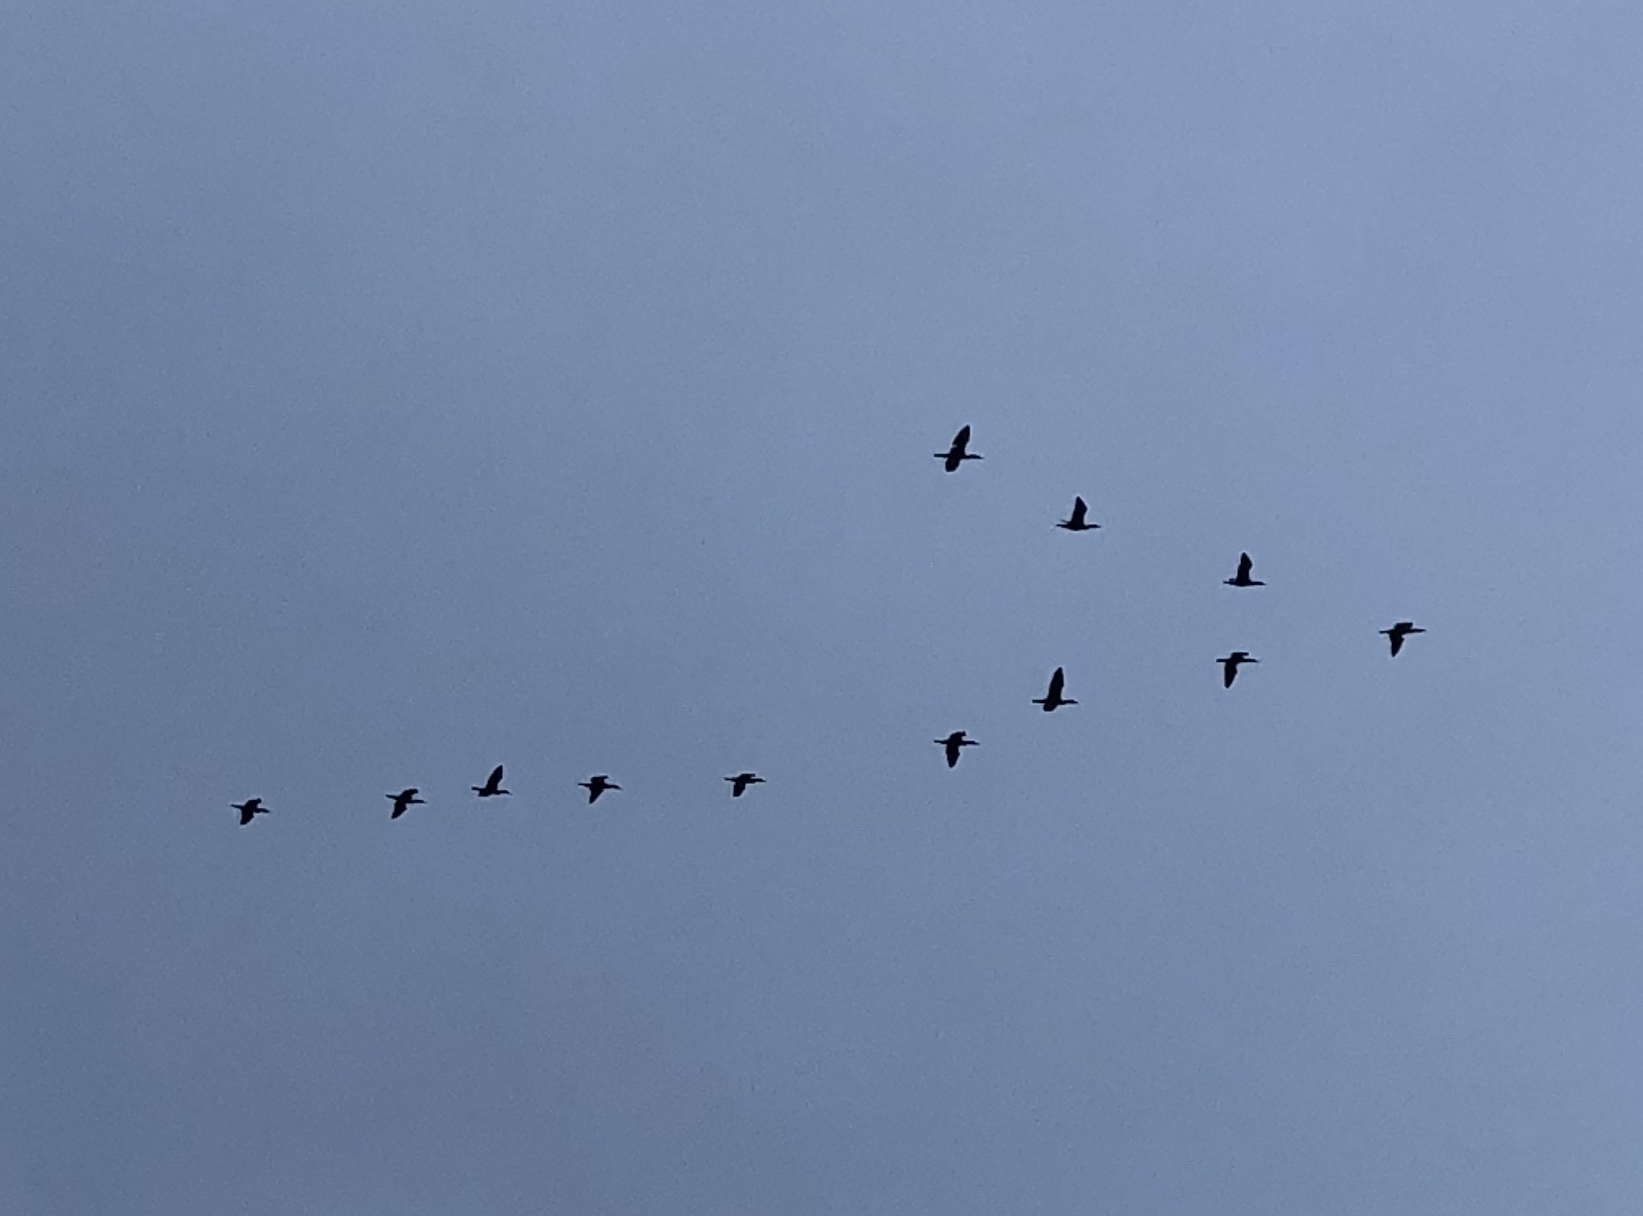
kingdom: Animalia
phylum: Chordata
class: Aves
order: Suliformes
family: Phalacrocoracidae
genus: Phalacrocorax
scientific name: Phalacrocorax auritus
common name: Double-crested cormorant
